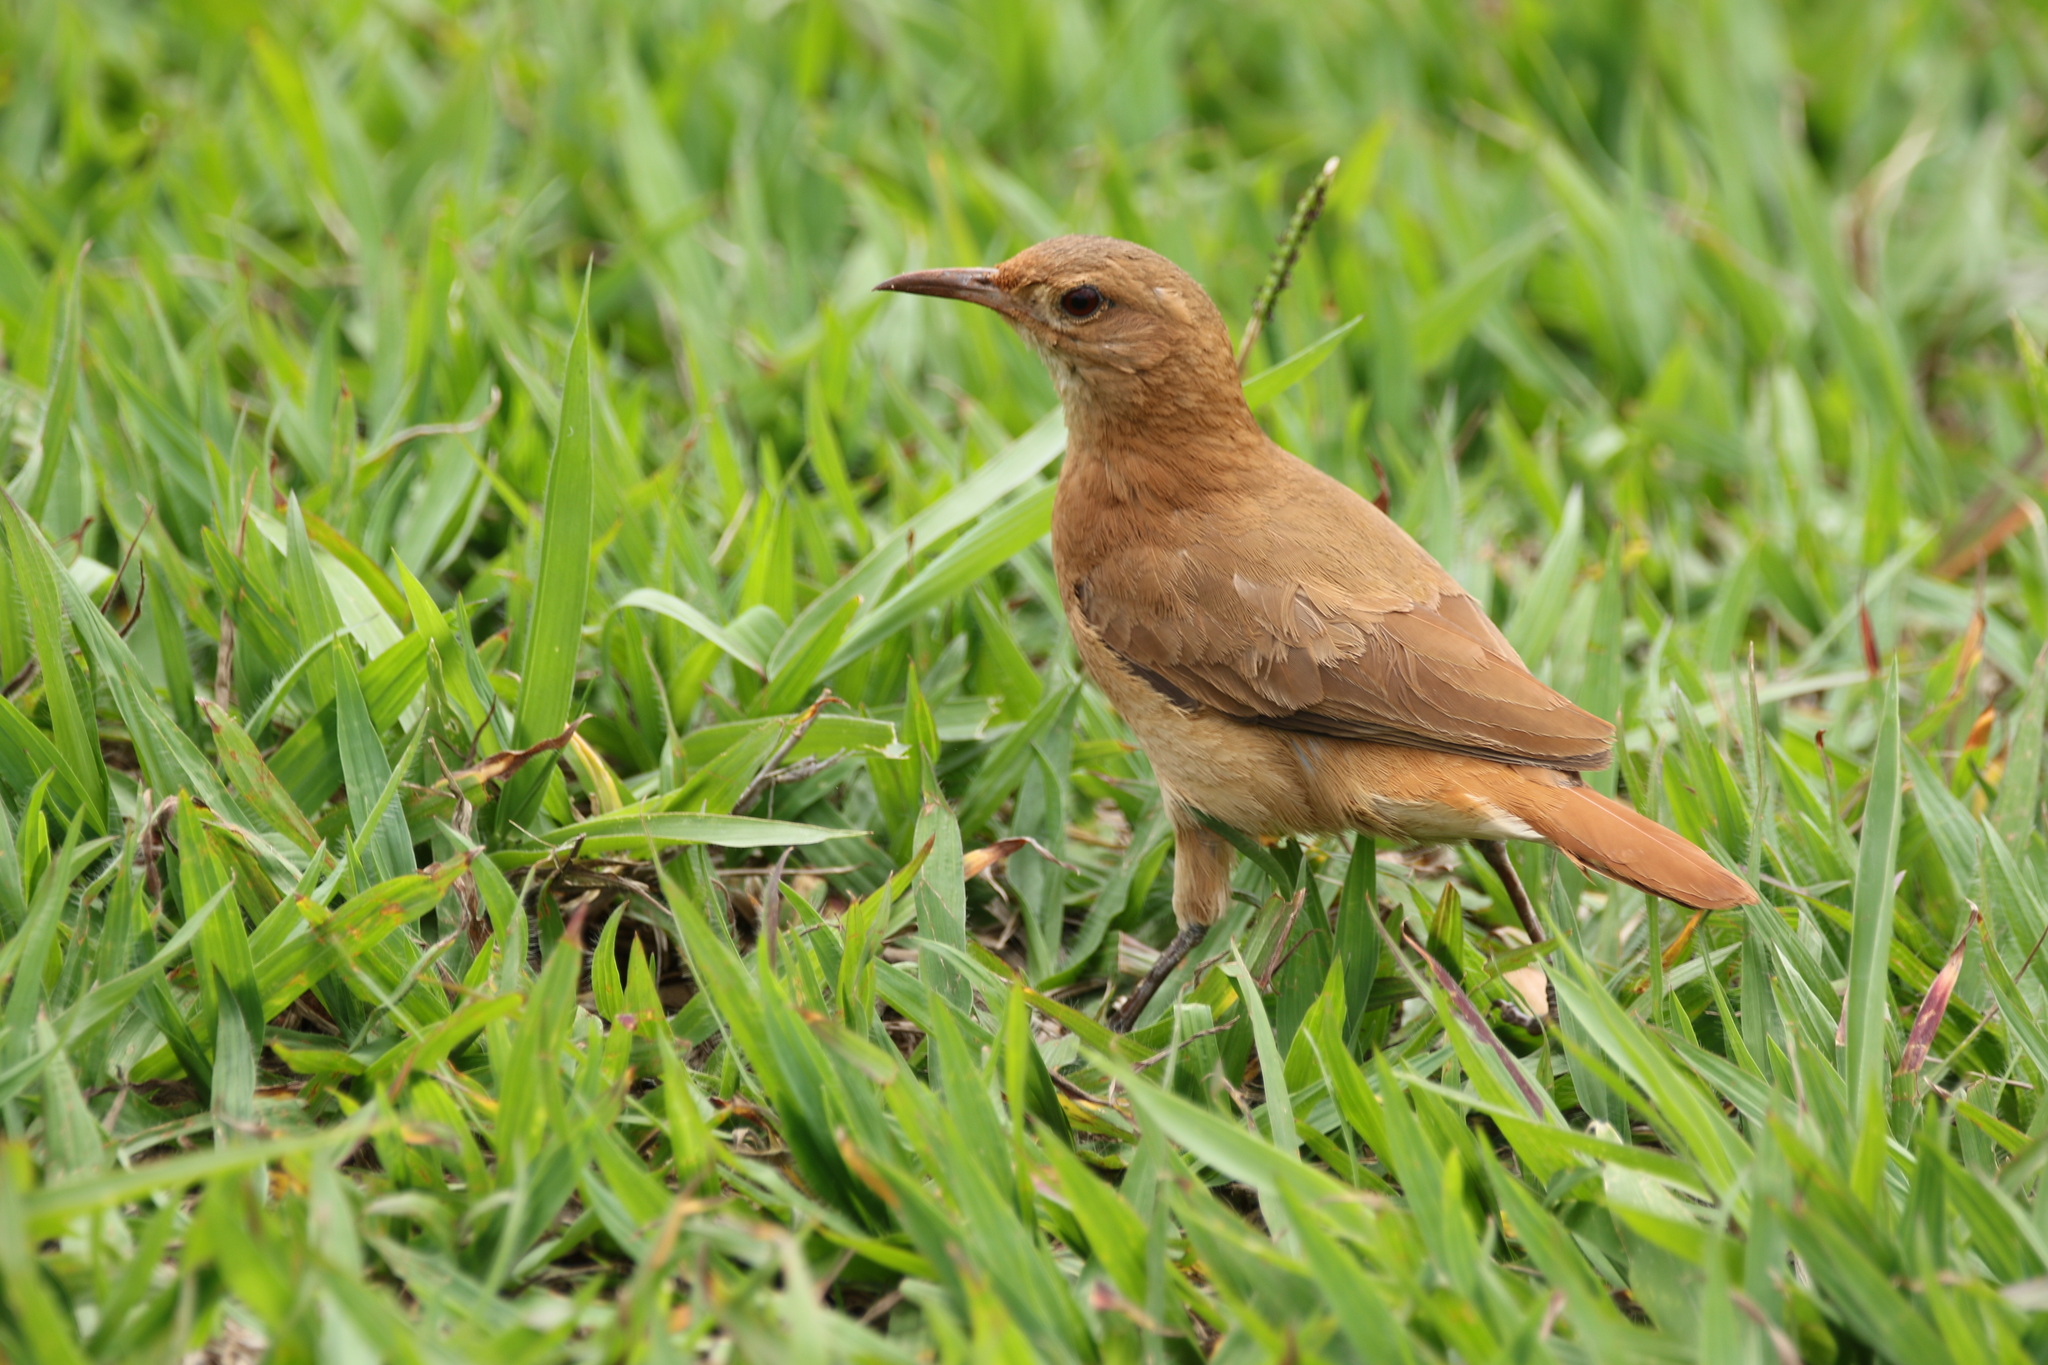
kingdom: Animalia
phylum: Chordata
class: Aves
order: Passeriformes
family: Furnariidae
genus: Furnarius
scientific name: Furnarius rufus
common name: Rufous hornero
